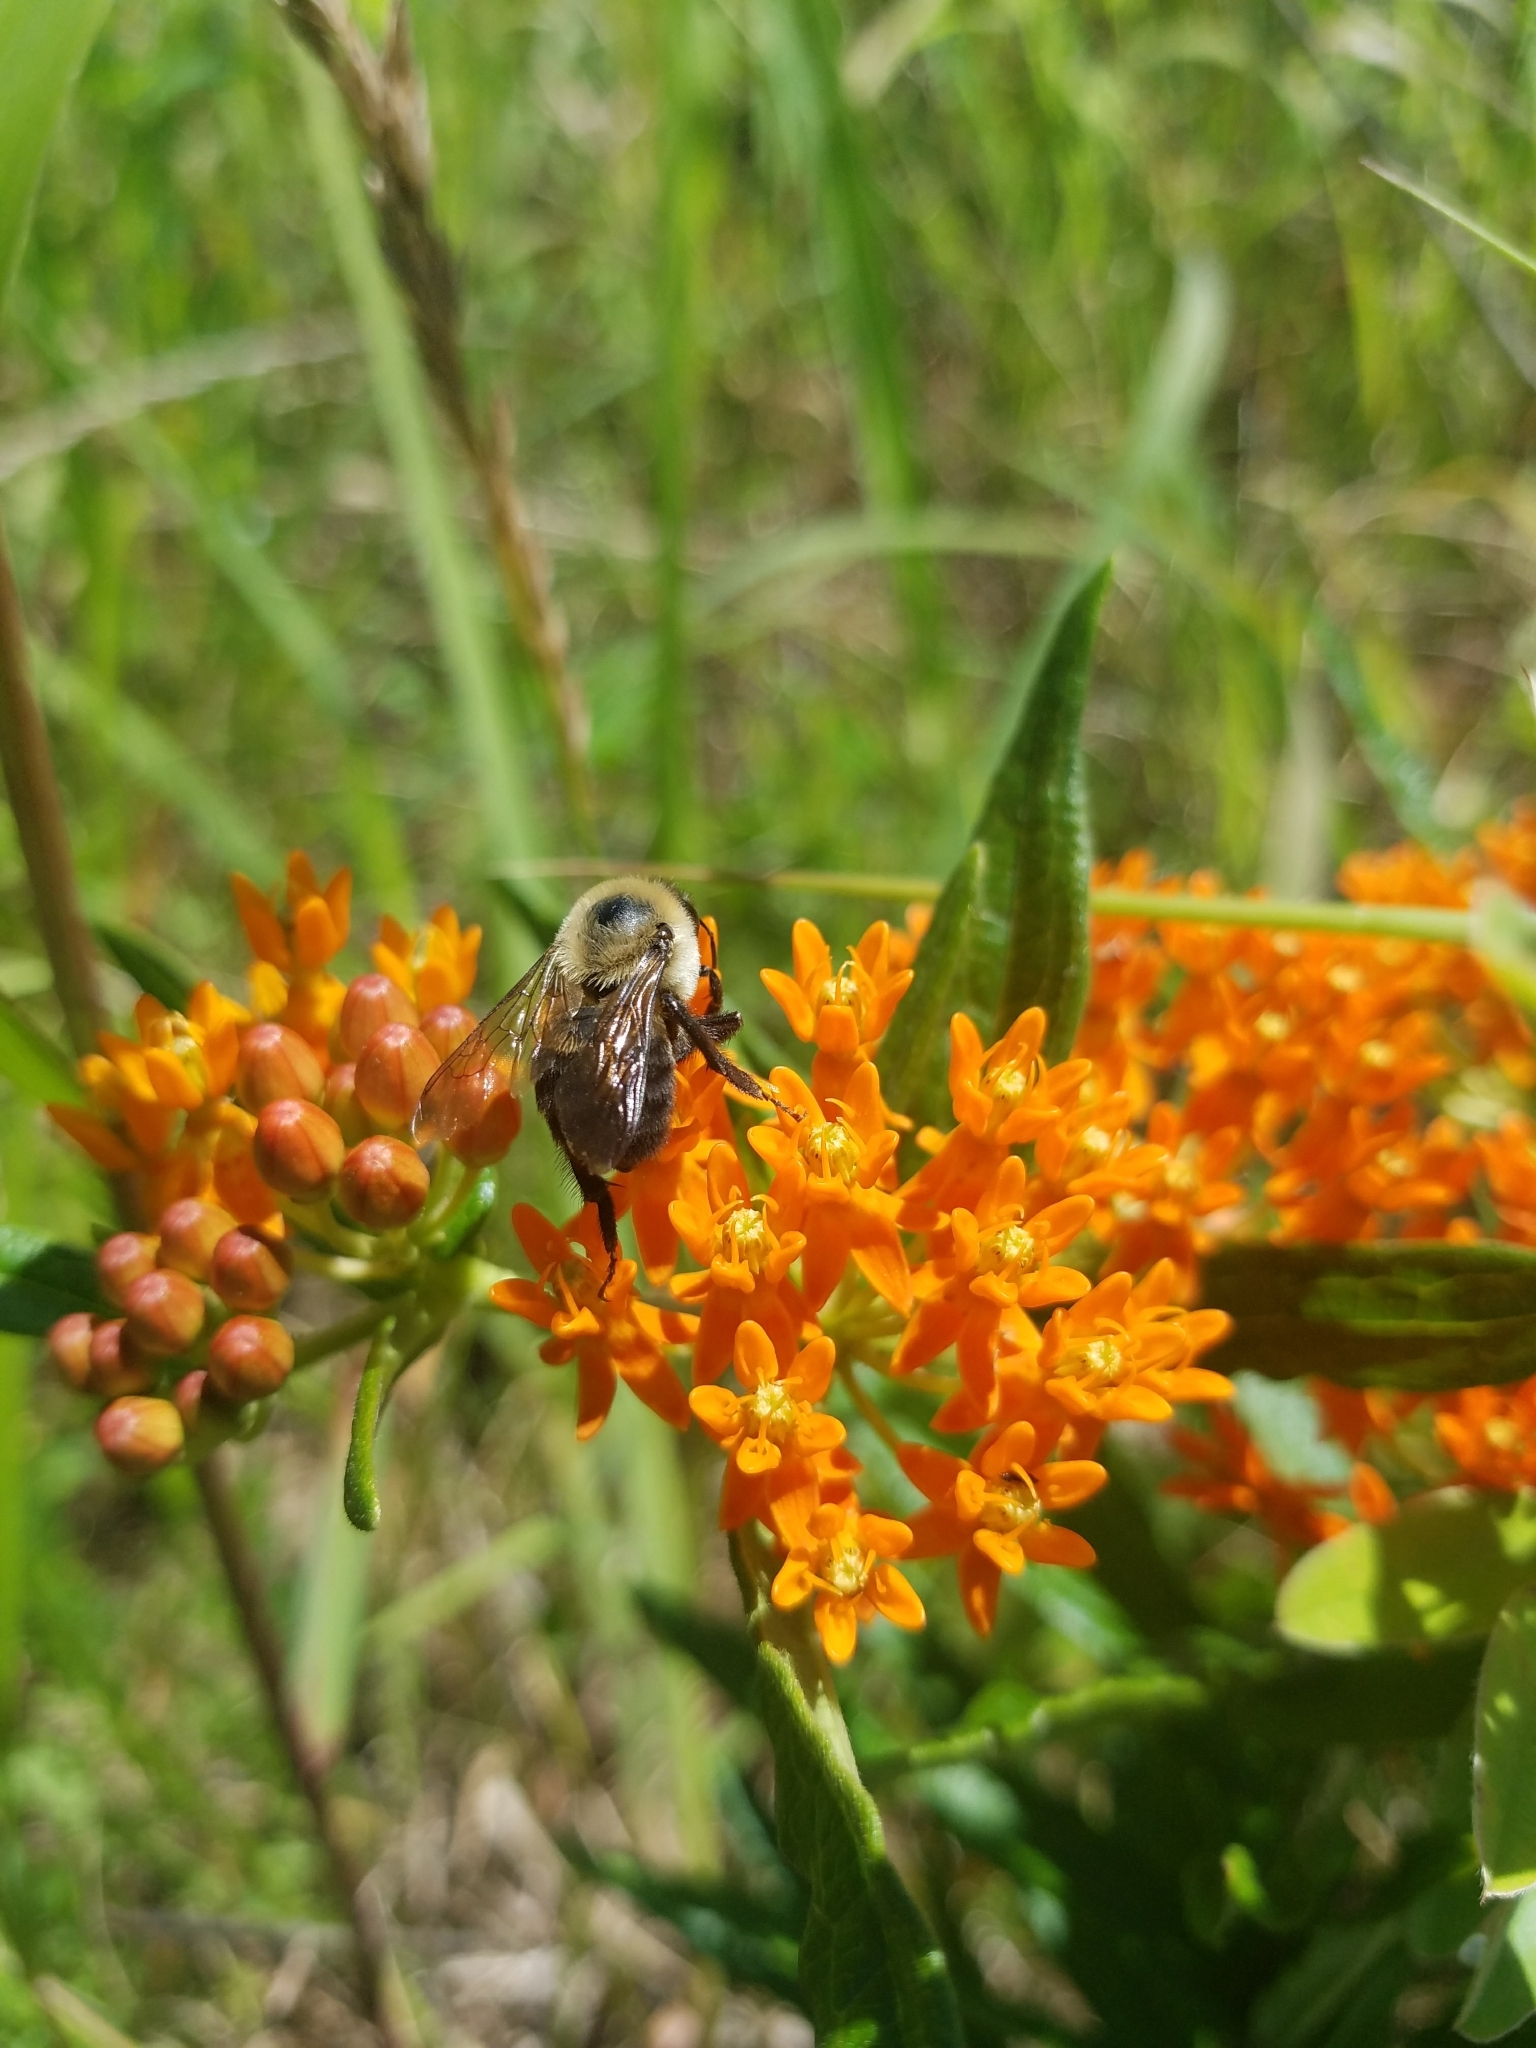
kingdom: Animalia
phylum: Arthropoda
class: Insecta
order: Hymenoptera
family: Apidae
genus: Bombus
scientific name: Bombus griseocollis
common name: Brown-belted bumble bee
